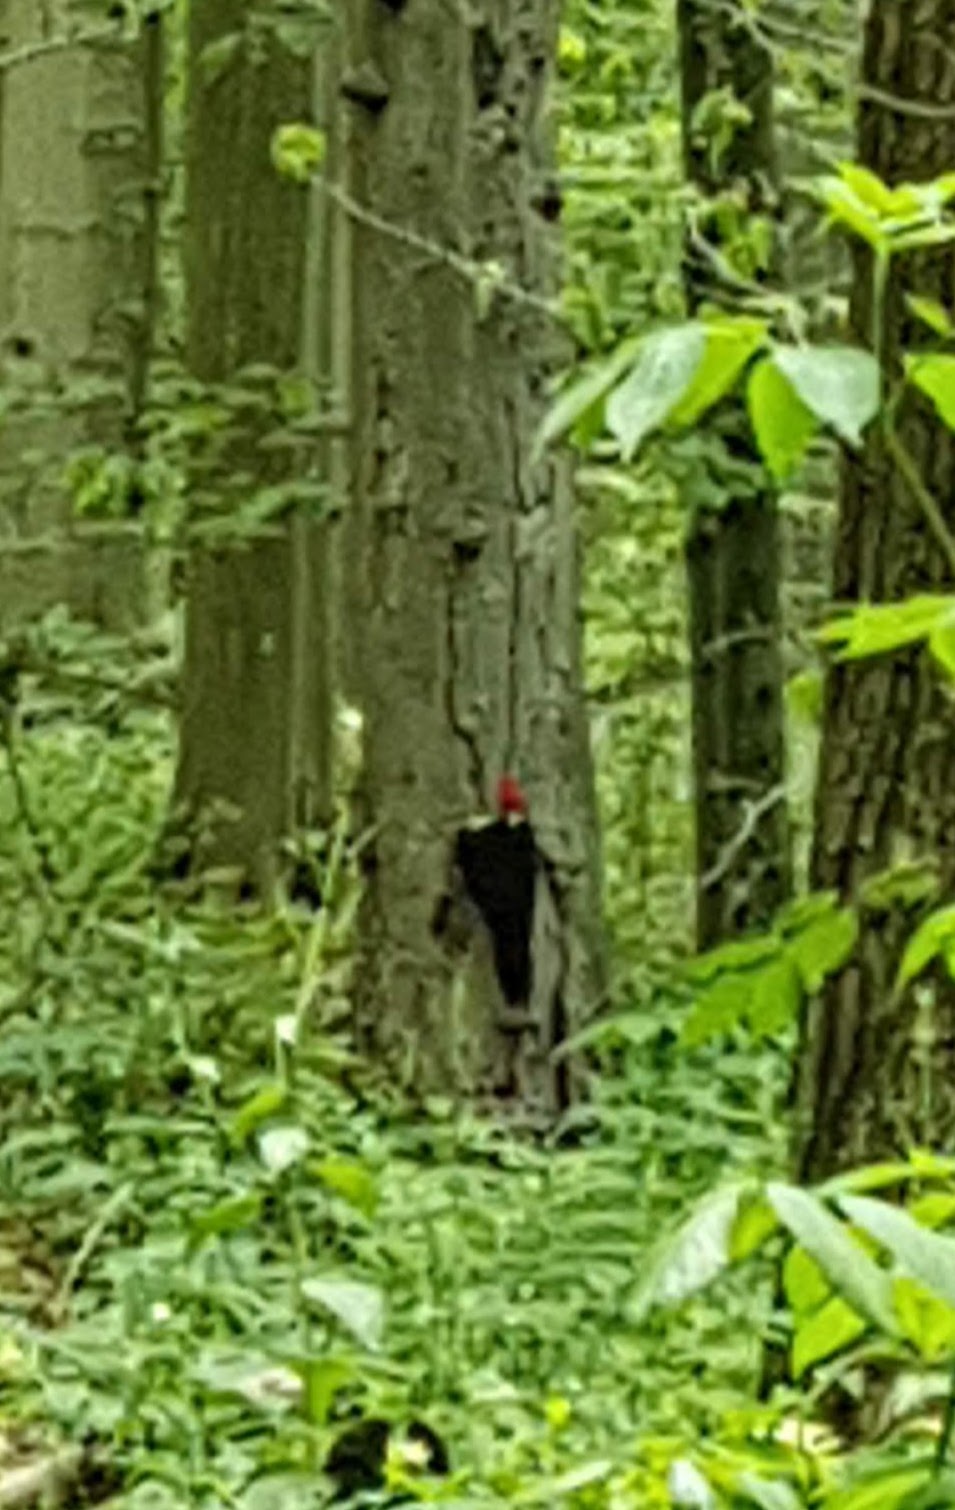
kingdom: Animalia
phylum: Chordata
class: Aves
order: Piciformes
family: Picidae
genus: Dryocopus
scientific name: Dryocopus pileatus
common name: Pileated woodpecker
